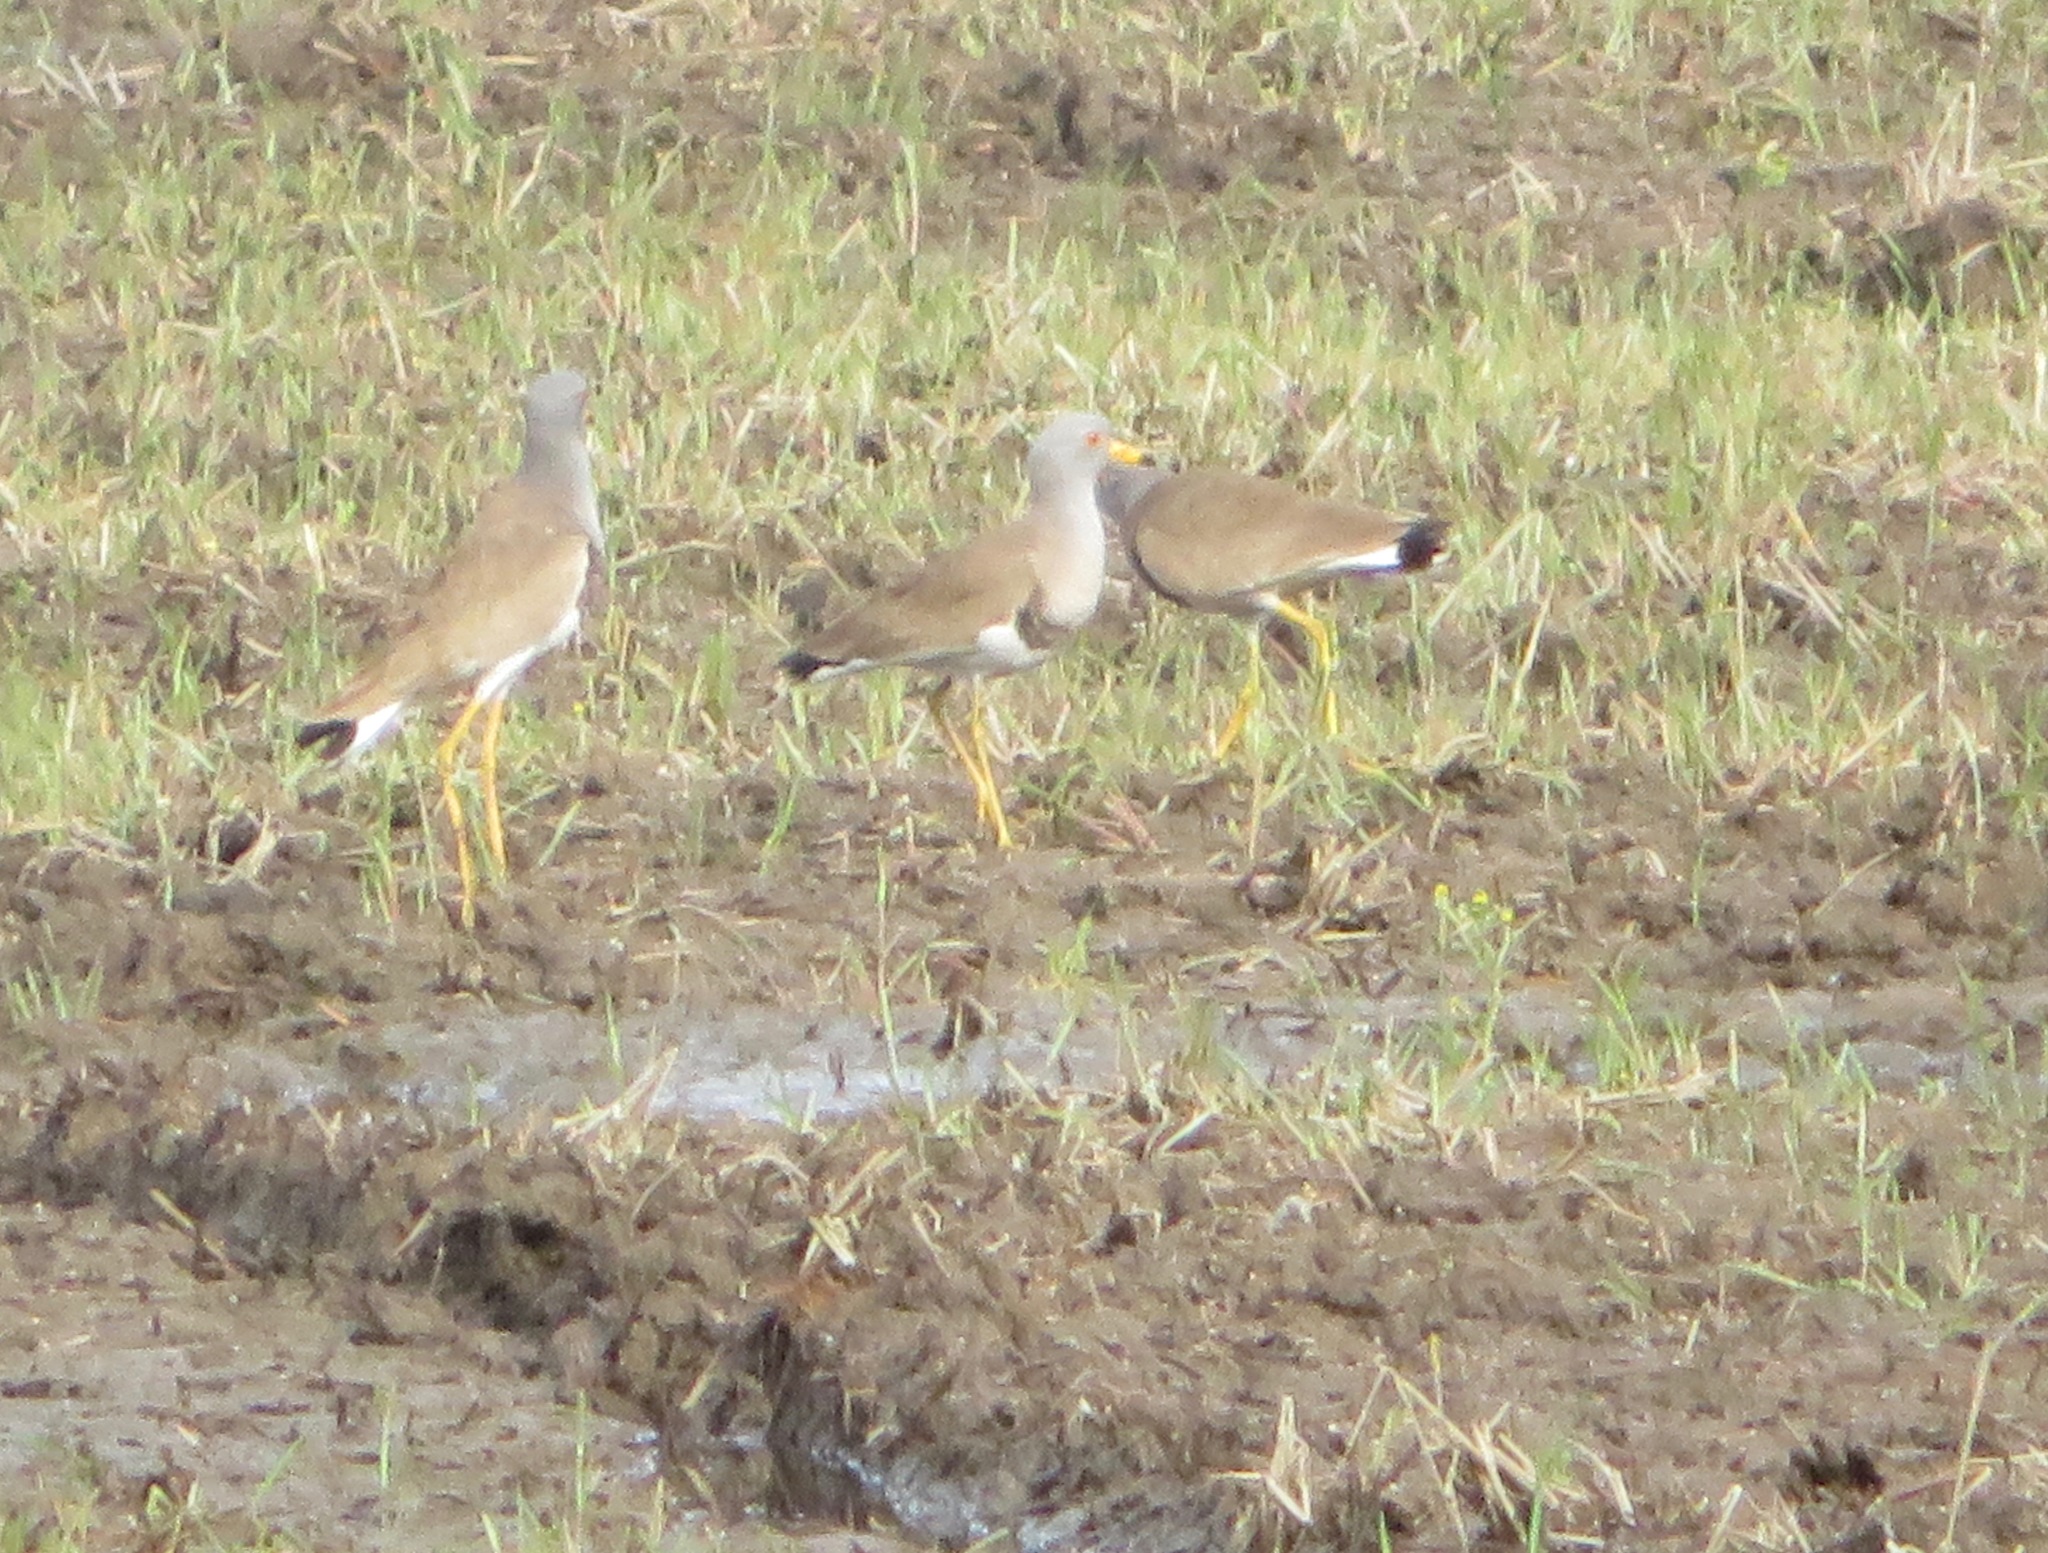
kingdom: Animalia
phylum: Chordata
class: Aves
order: Charadriiformes
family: Charadriidae
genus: Vanellus
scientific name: Vanellus cinereus
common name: Grey-headed lapwing
